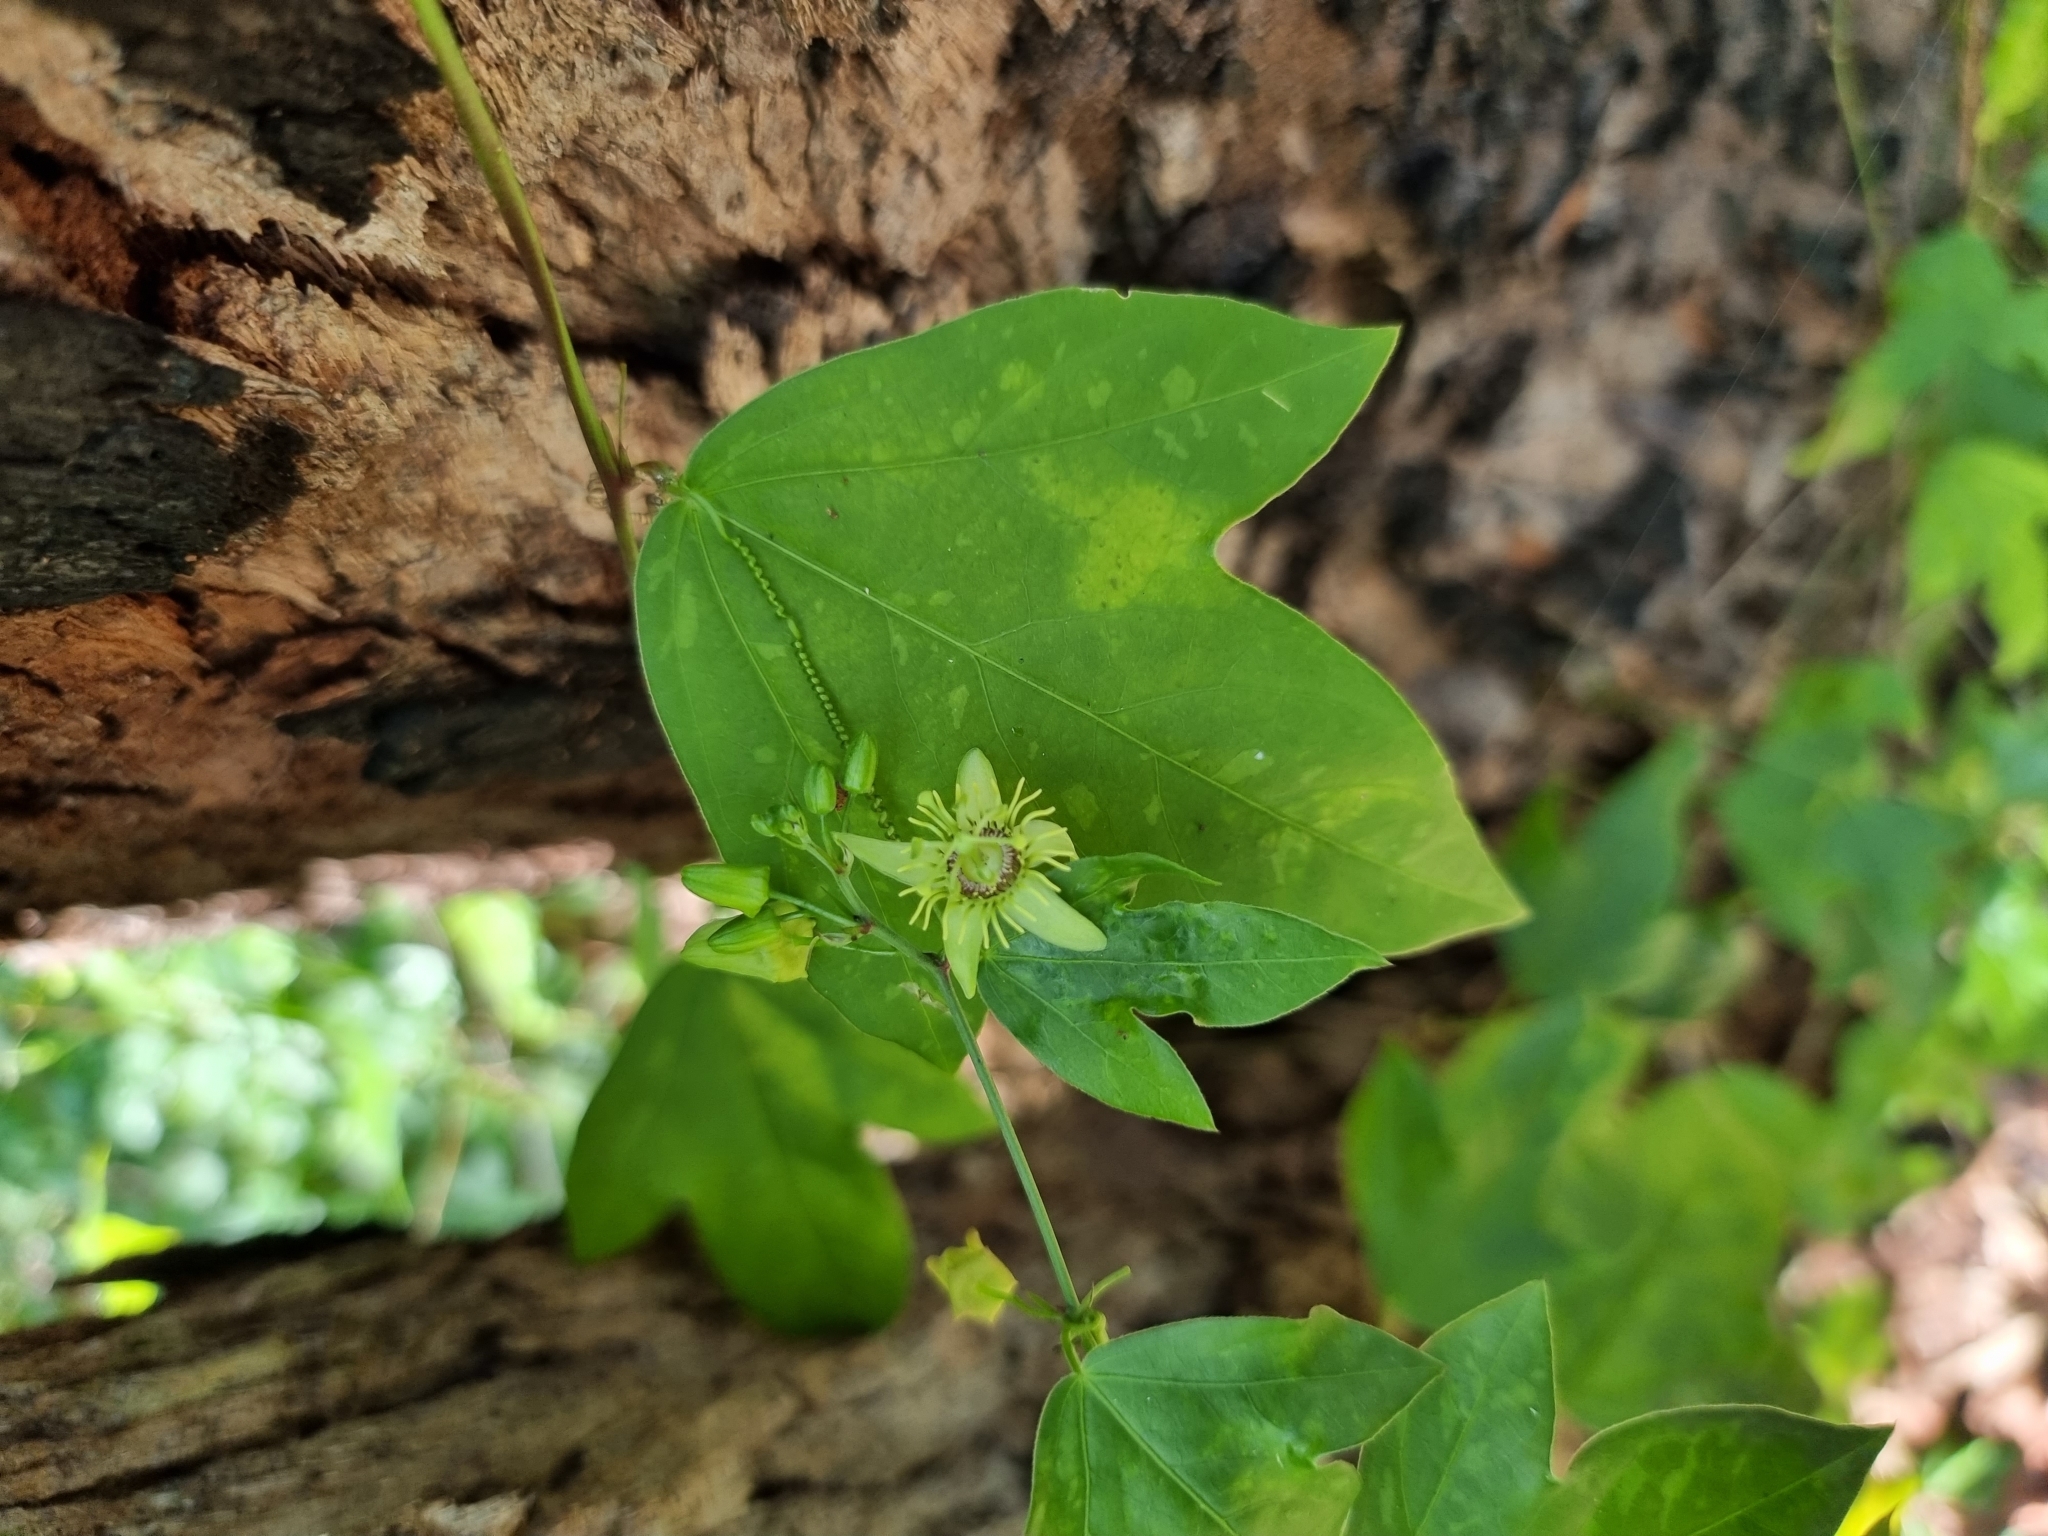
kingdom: Plantae
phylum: Tracheophyta
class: Magnoliopsida
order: Malpighiales
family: Passifloraceae
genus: Passiflora
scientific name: Passiflora pallida
